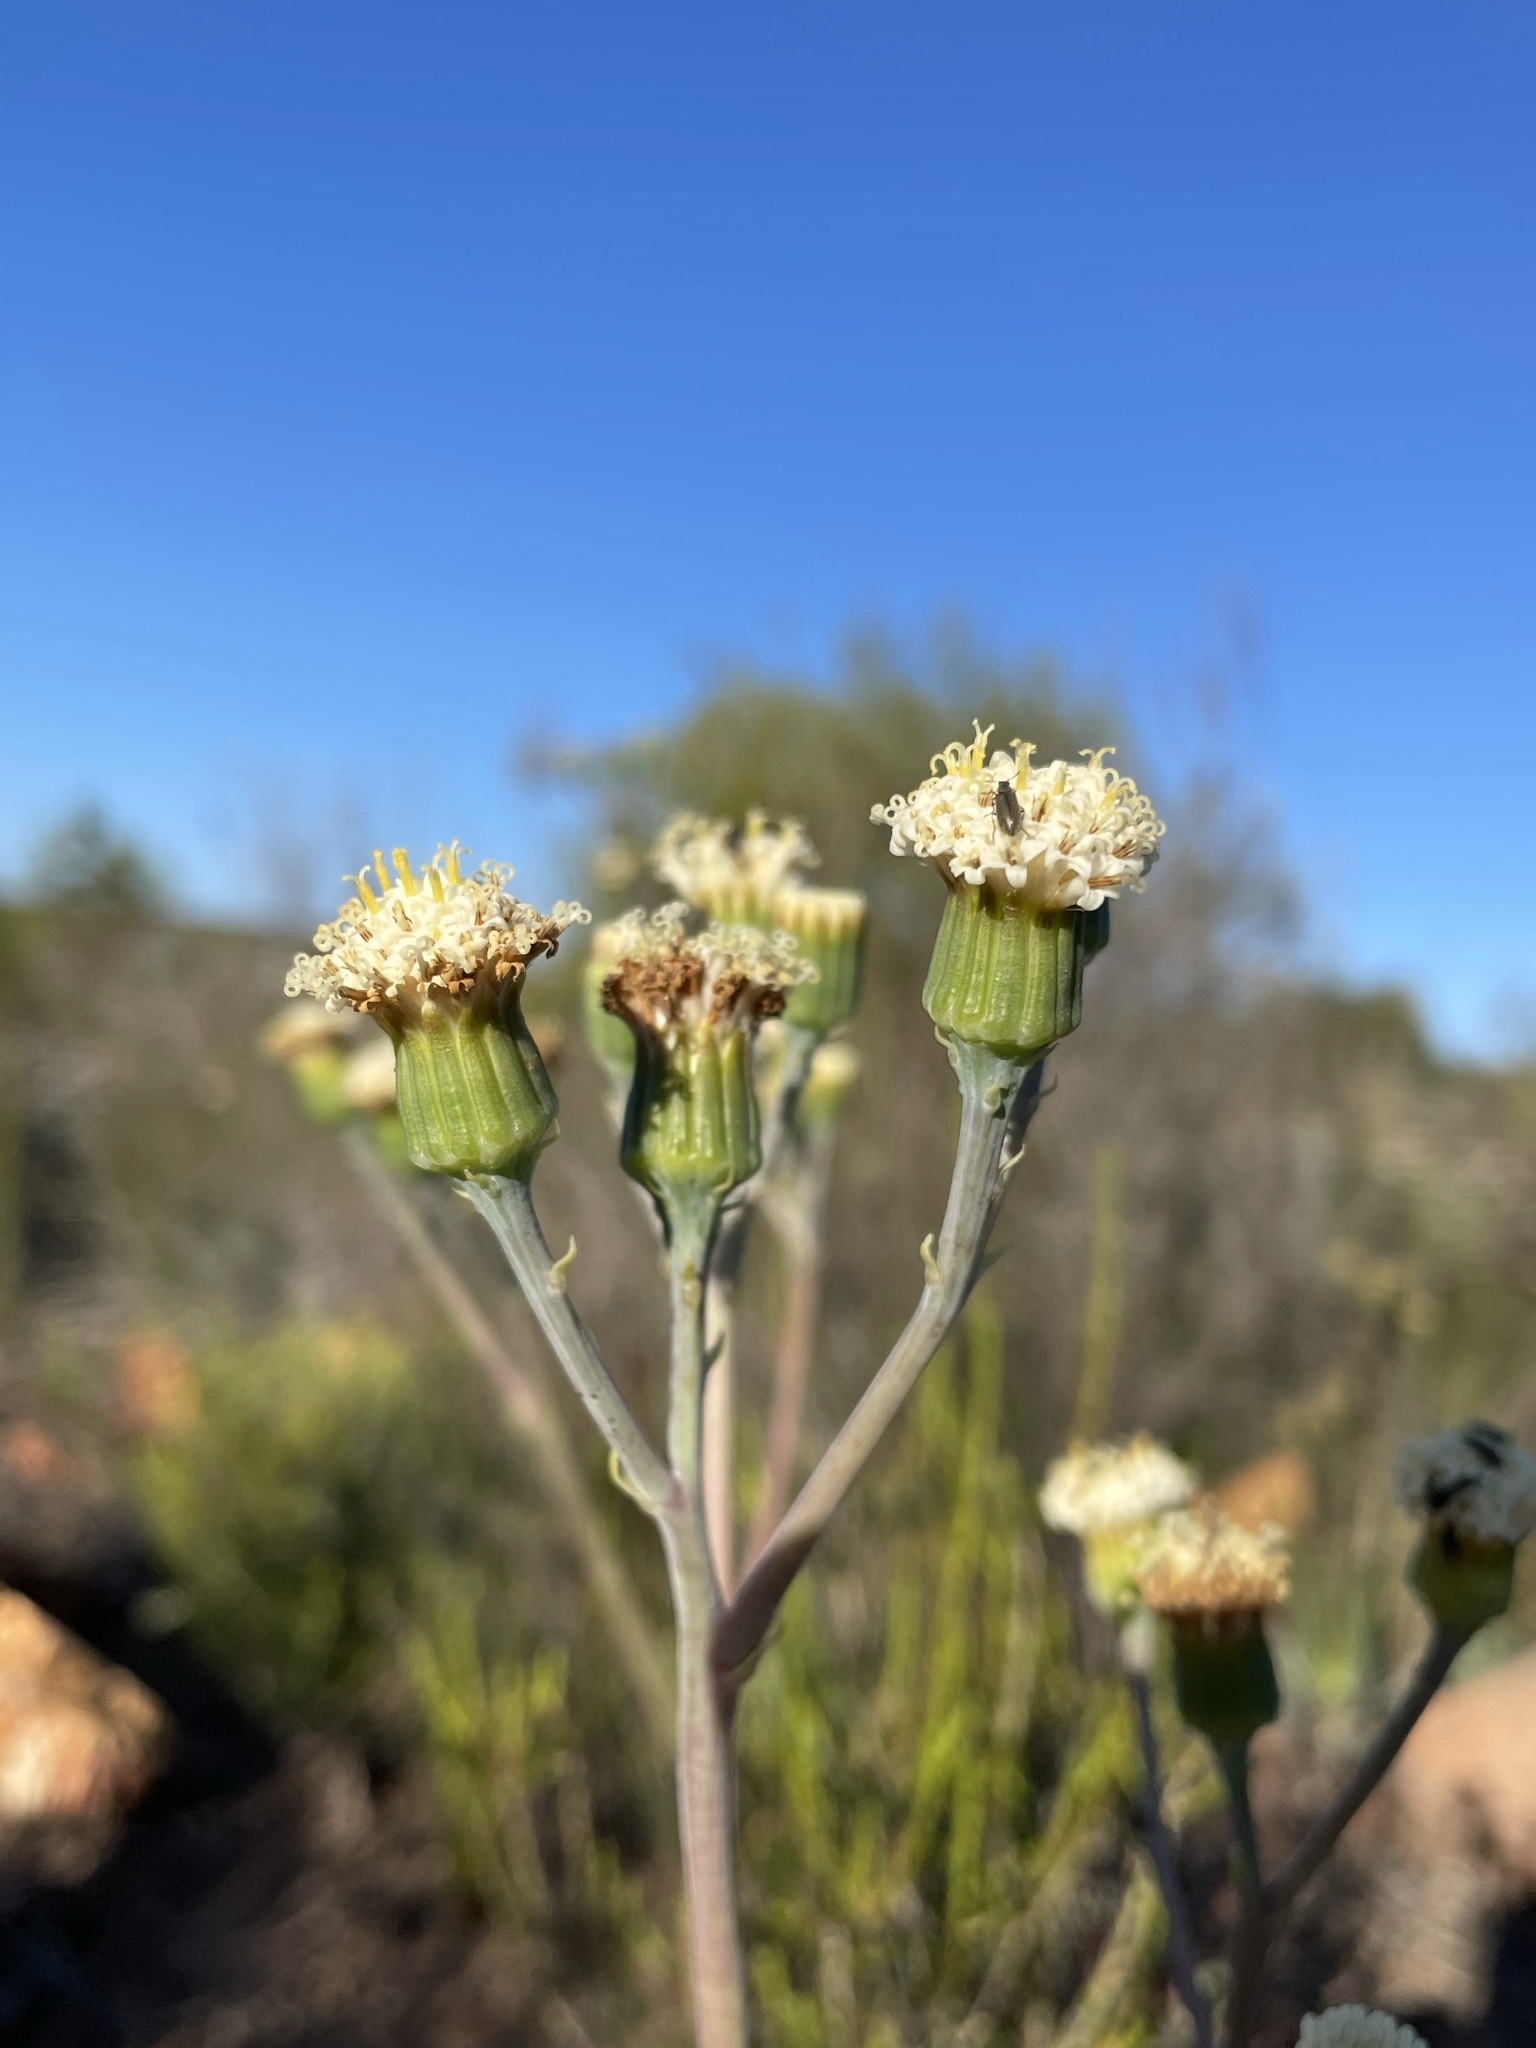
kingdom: Plantae
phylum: Tracheophyta
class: Magnoliopsida
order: Asterales
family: Asteraceae
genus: Curio
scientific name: Curio talinoides
